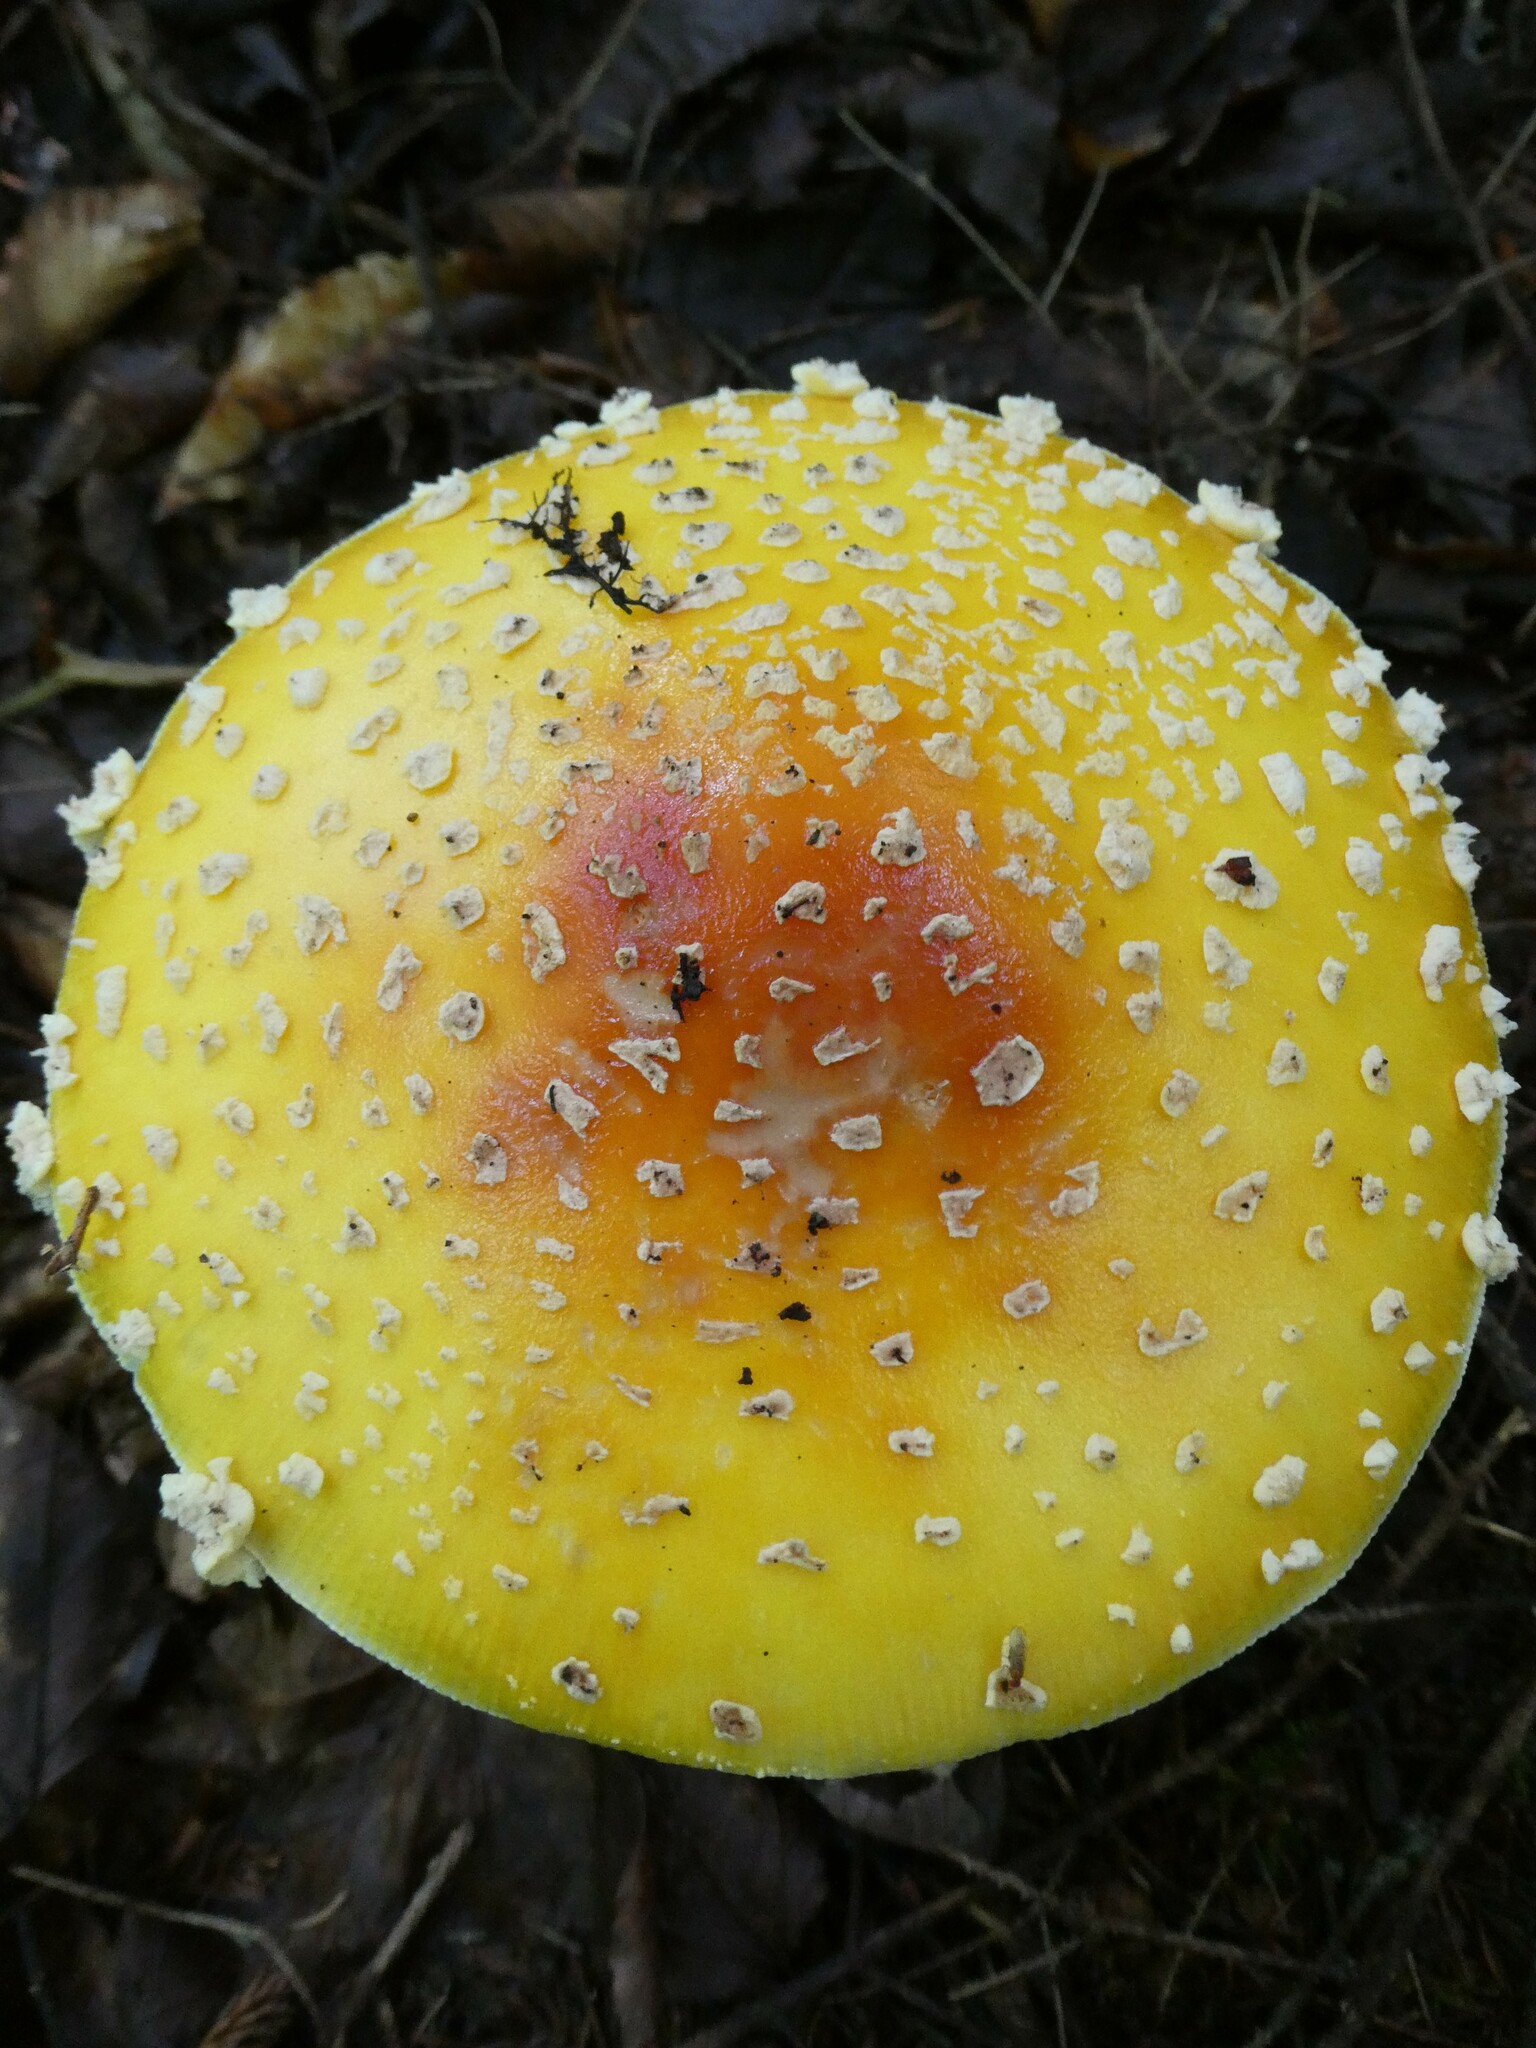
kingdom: Fungi
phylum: Basidiomycota
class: Agaricomycetes
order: Agaricales
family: Amanitaceae
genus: Amanita
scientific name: Amanita muscaria
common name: Fly agaric
